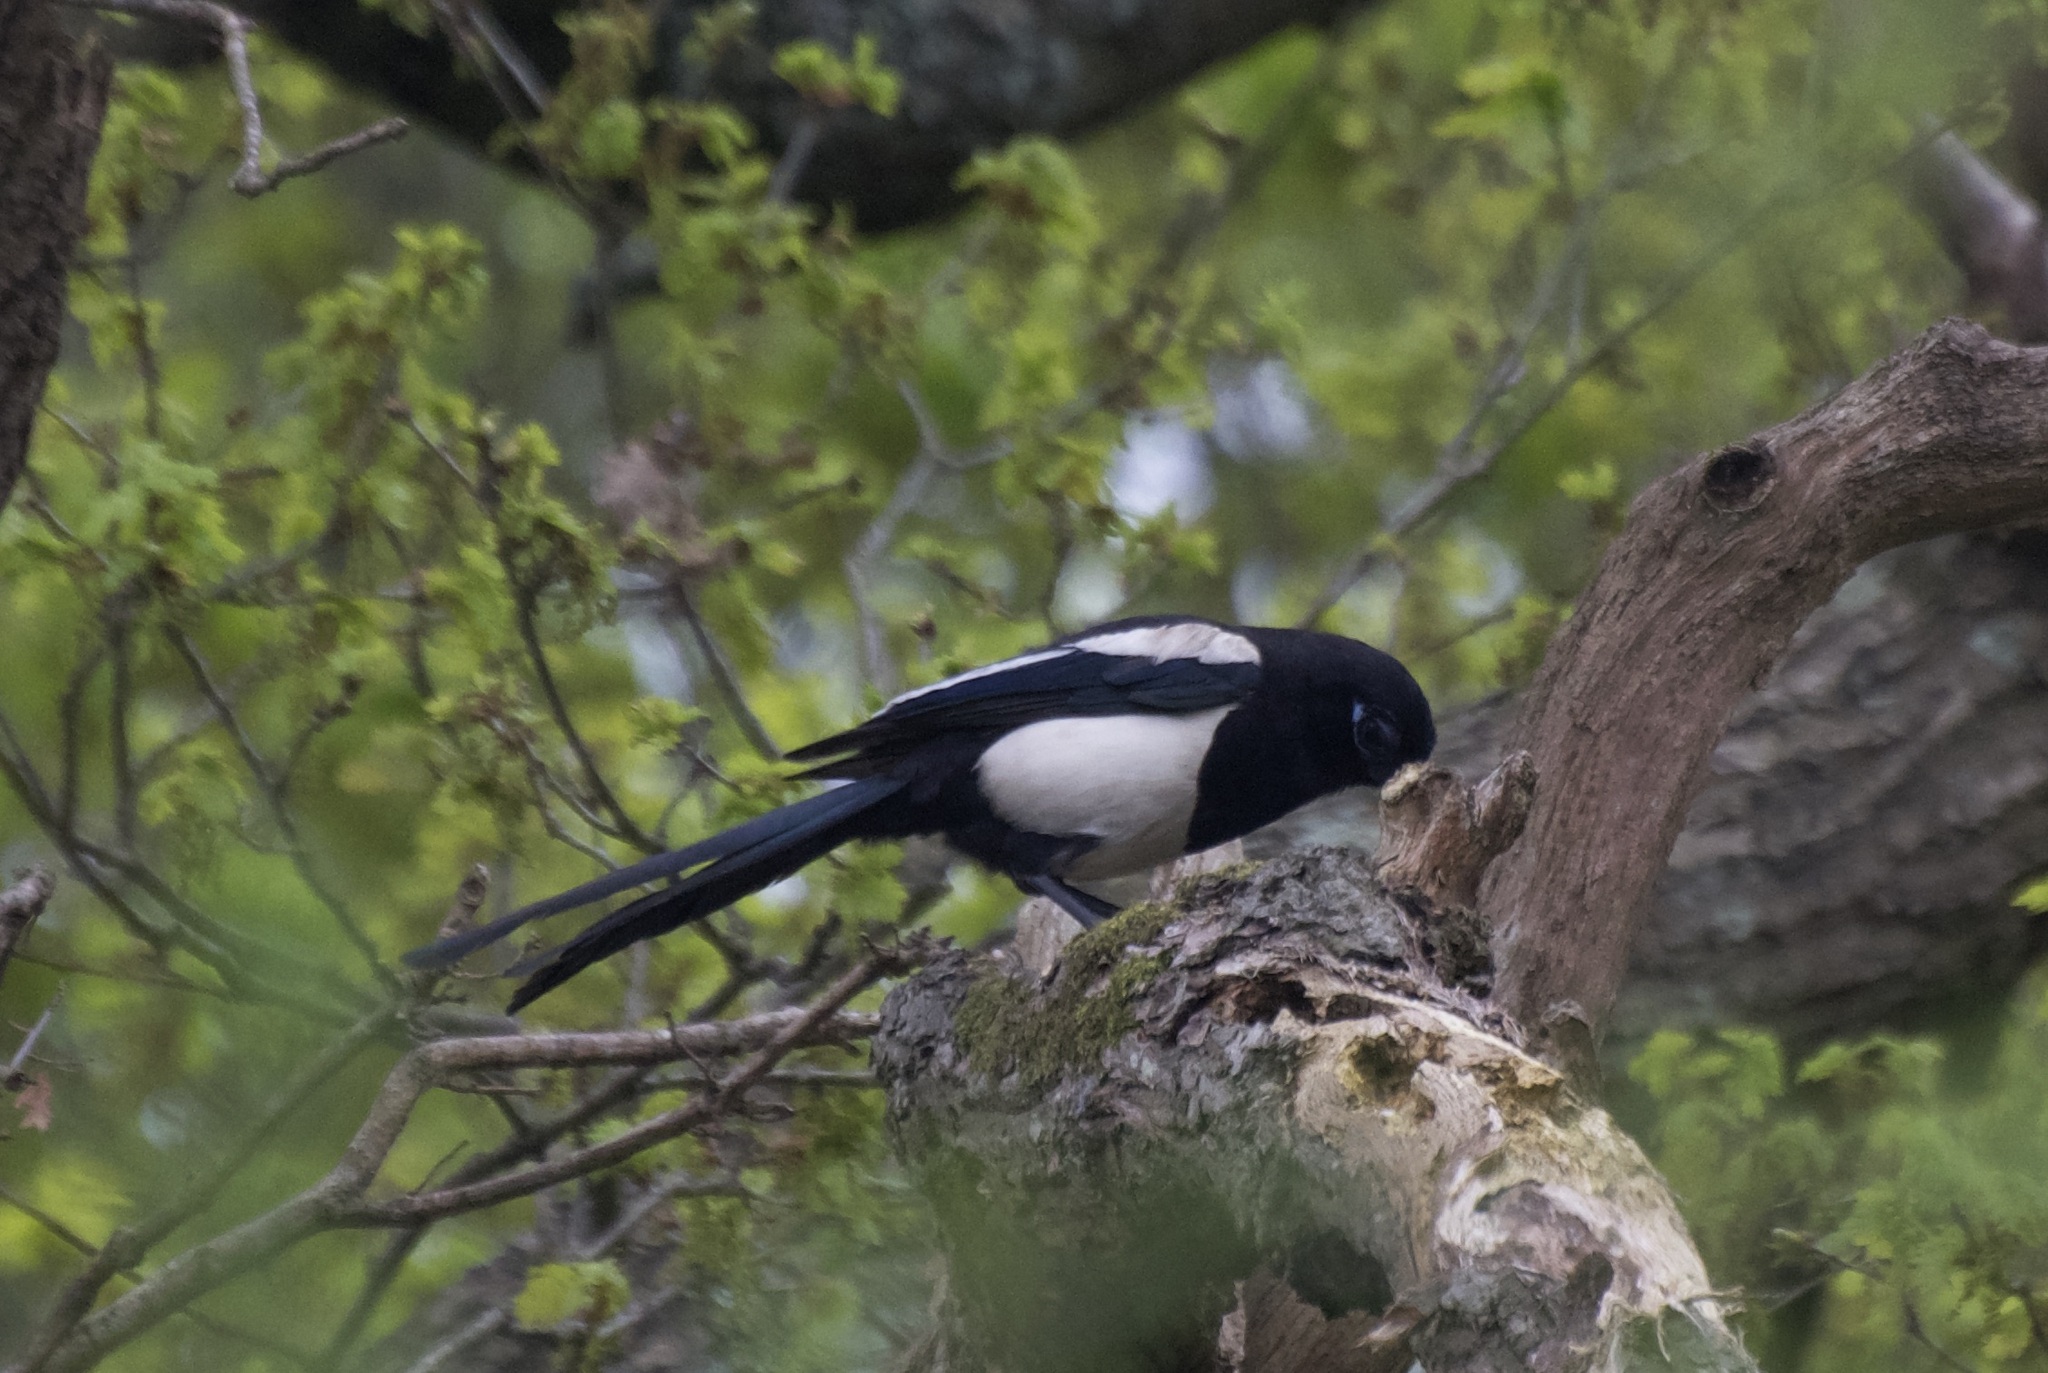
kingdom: Animalia
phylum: Chordata
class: Aves
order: Passeriformes
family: Corvidae
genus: Pica
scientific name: Pica pica
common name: Eurasian magpie
